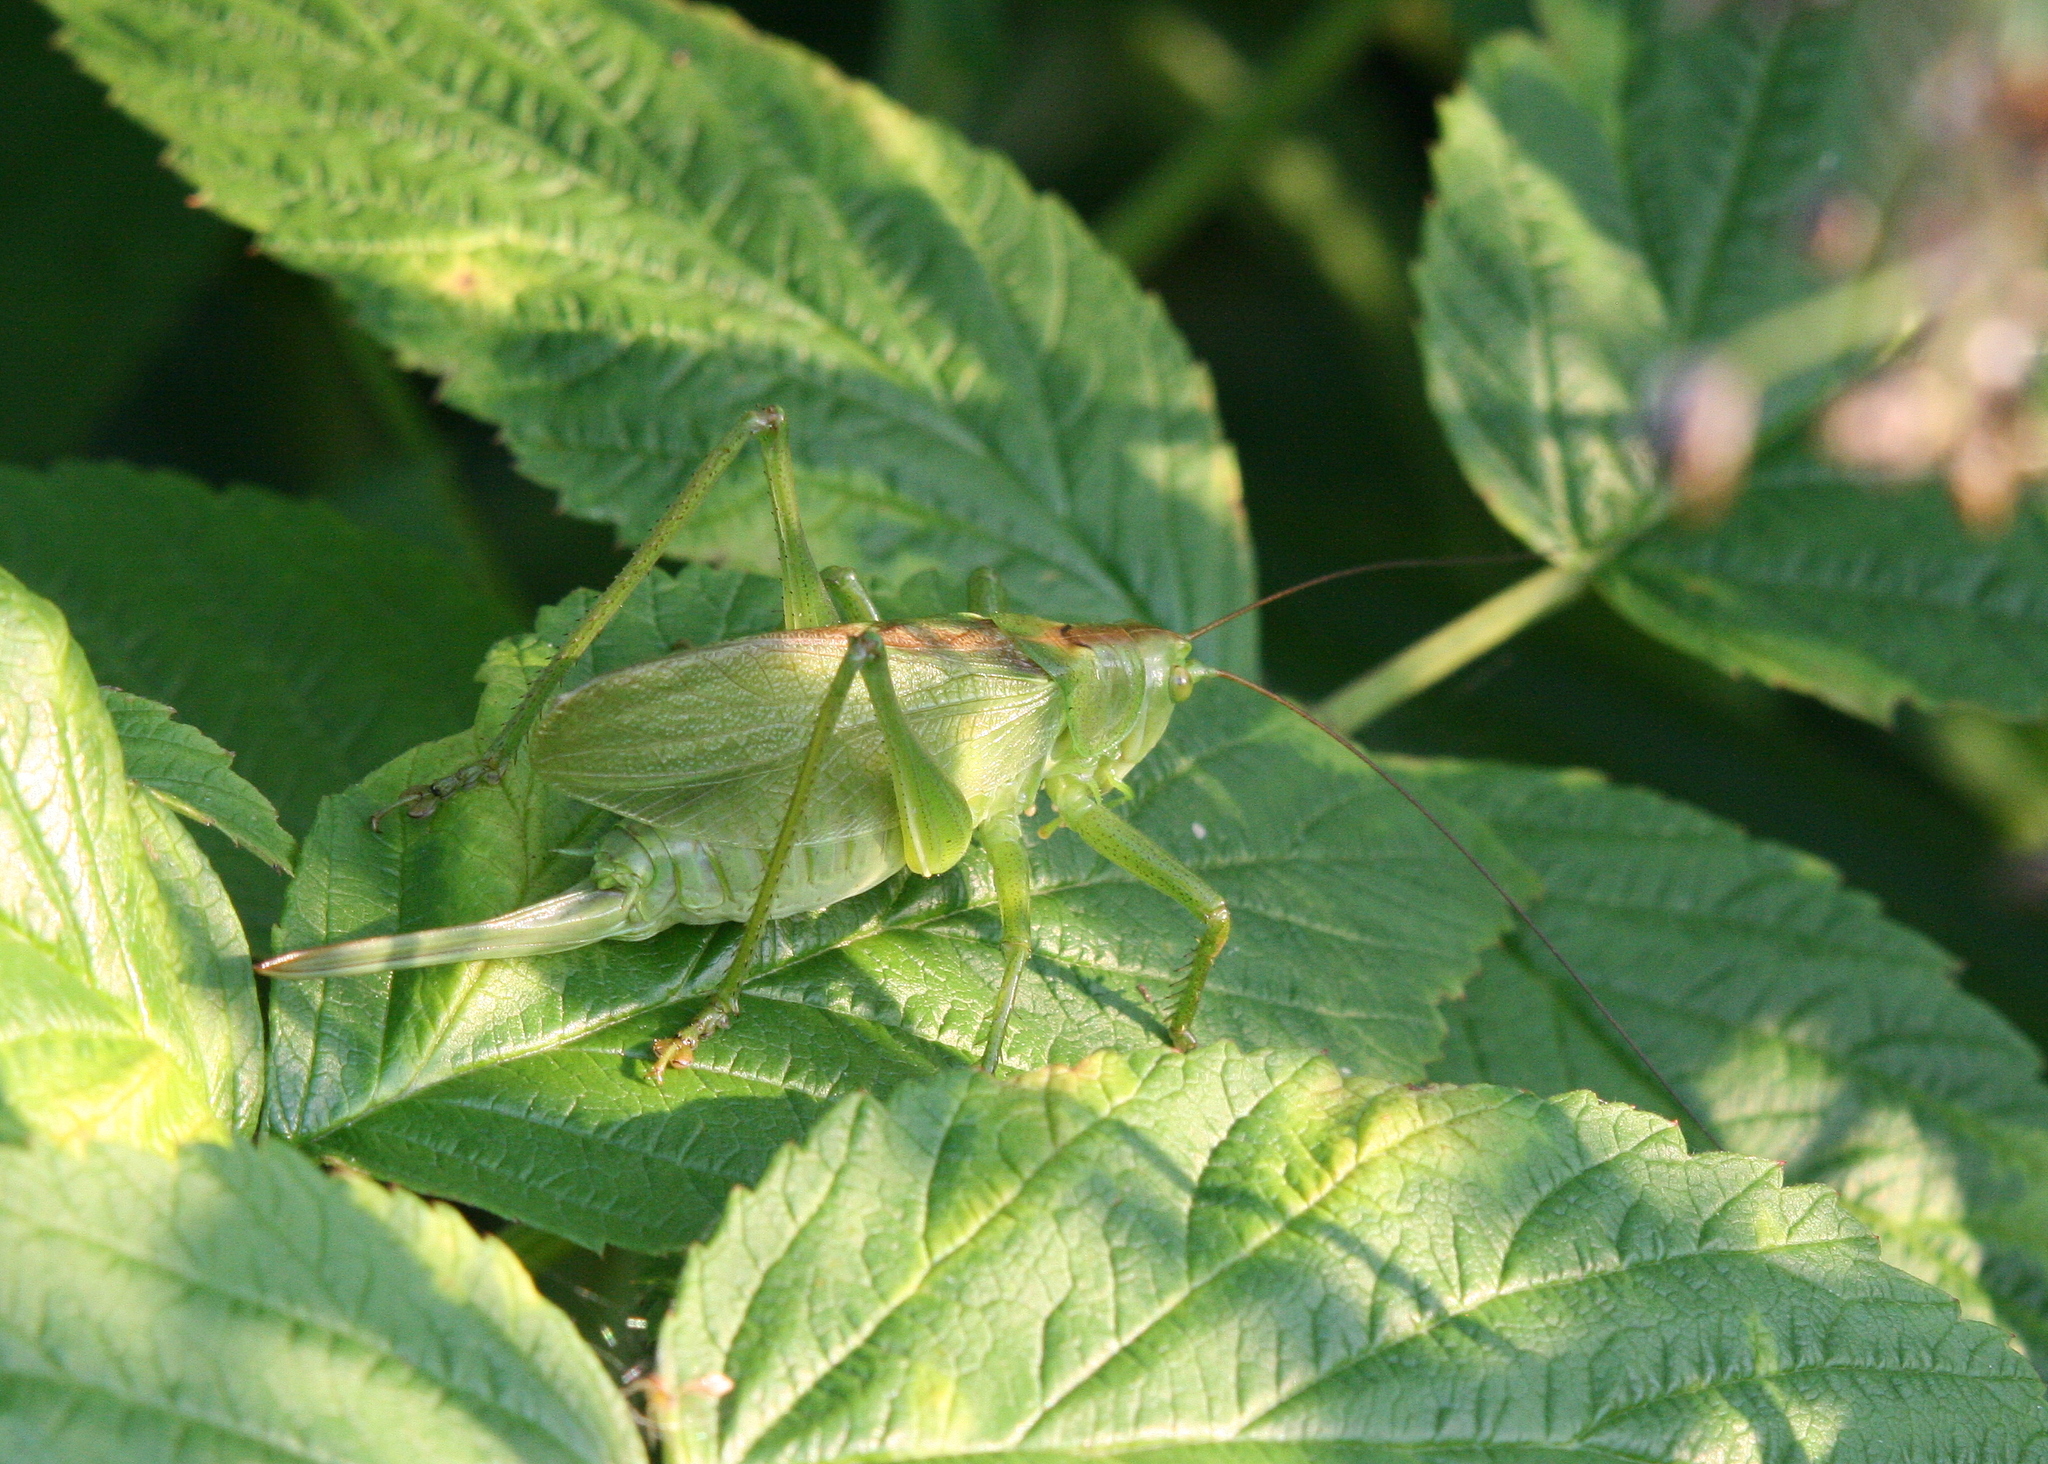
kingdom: Animalia
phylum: Arthropoda
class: Insecta
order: Orthoptera
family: Tettigoniidae
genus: Tettigonia
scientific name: Tettigonia cantans
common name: Upland green bush-cricket
